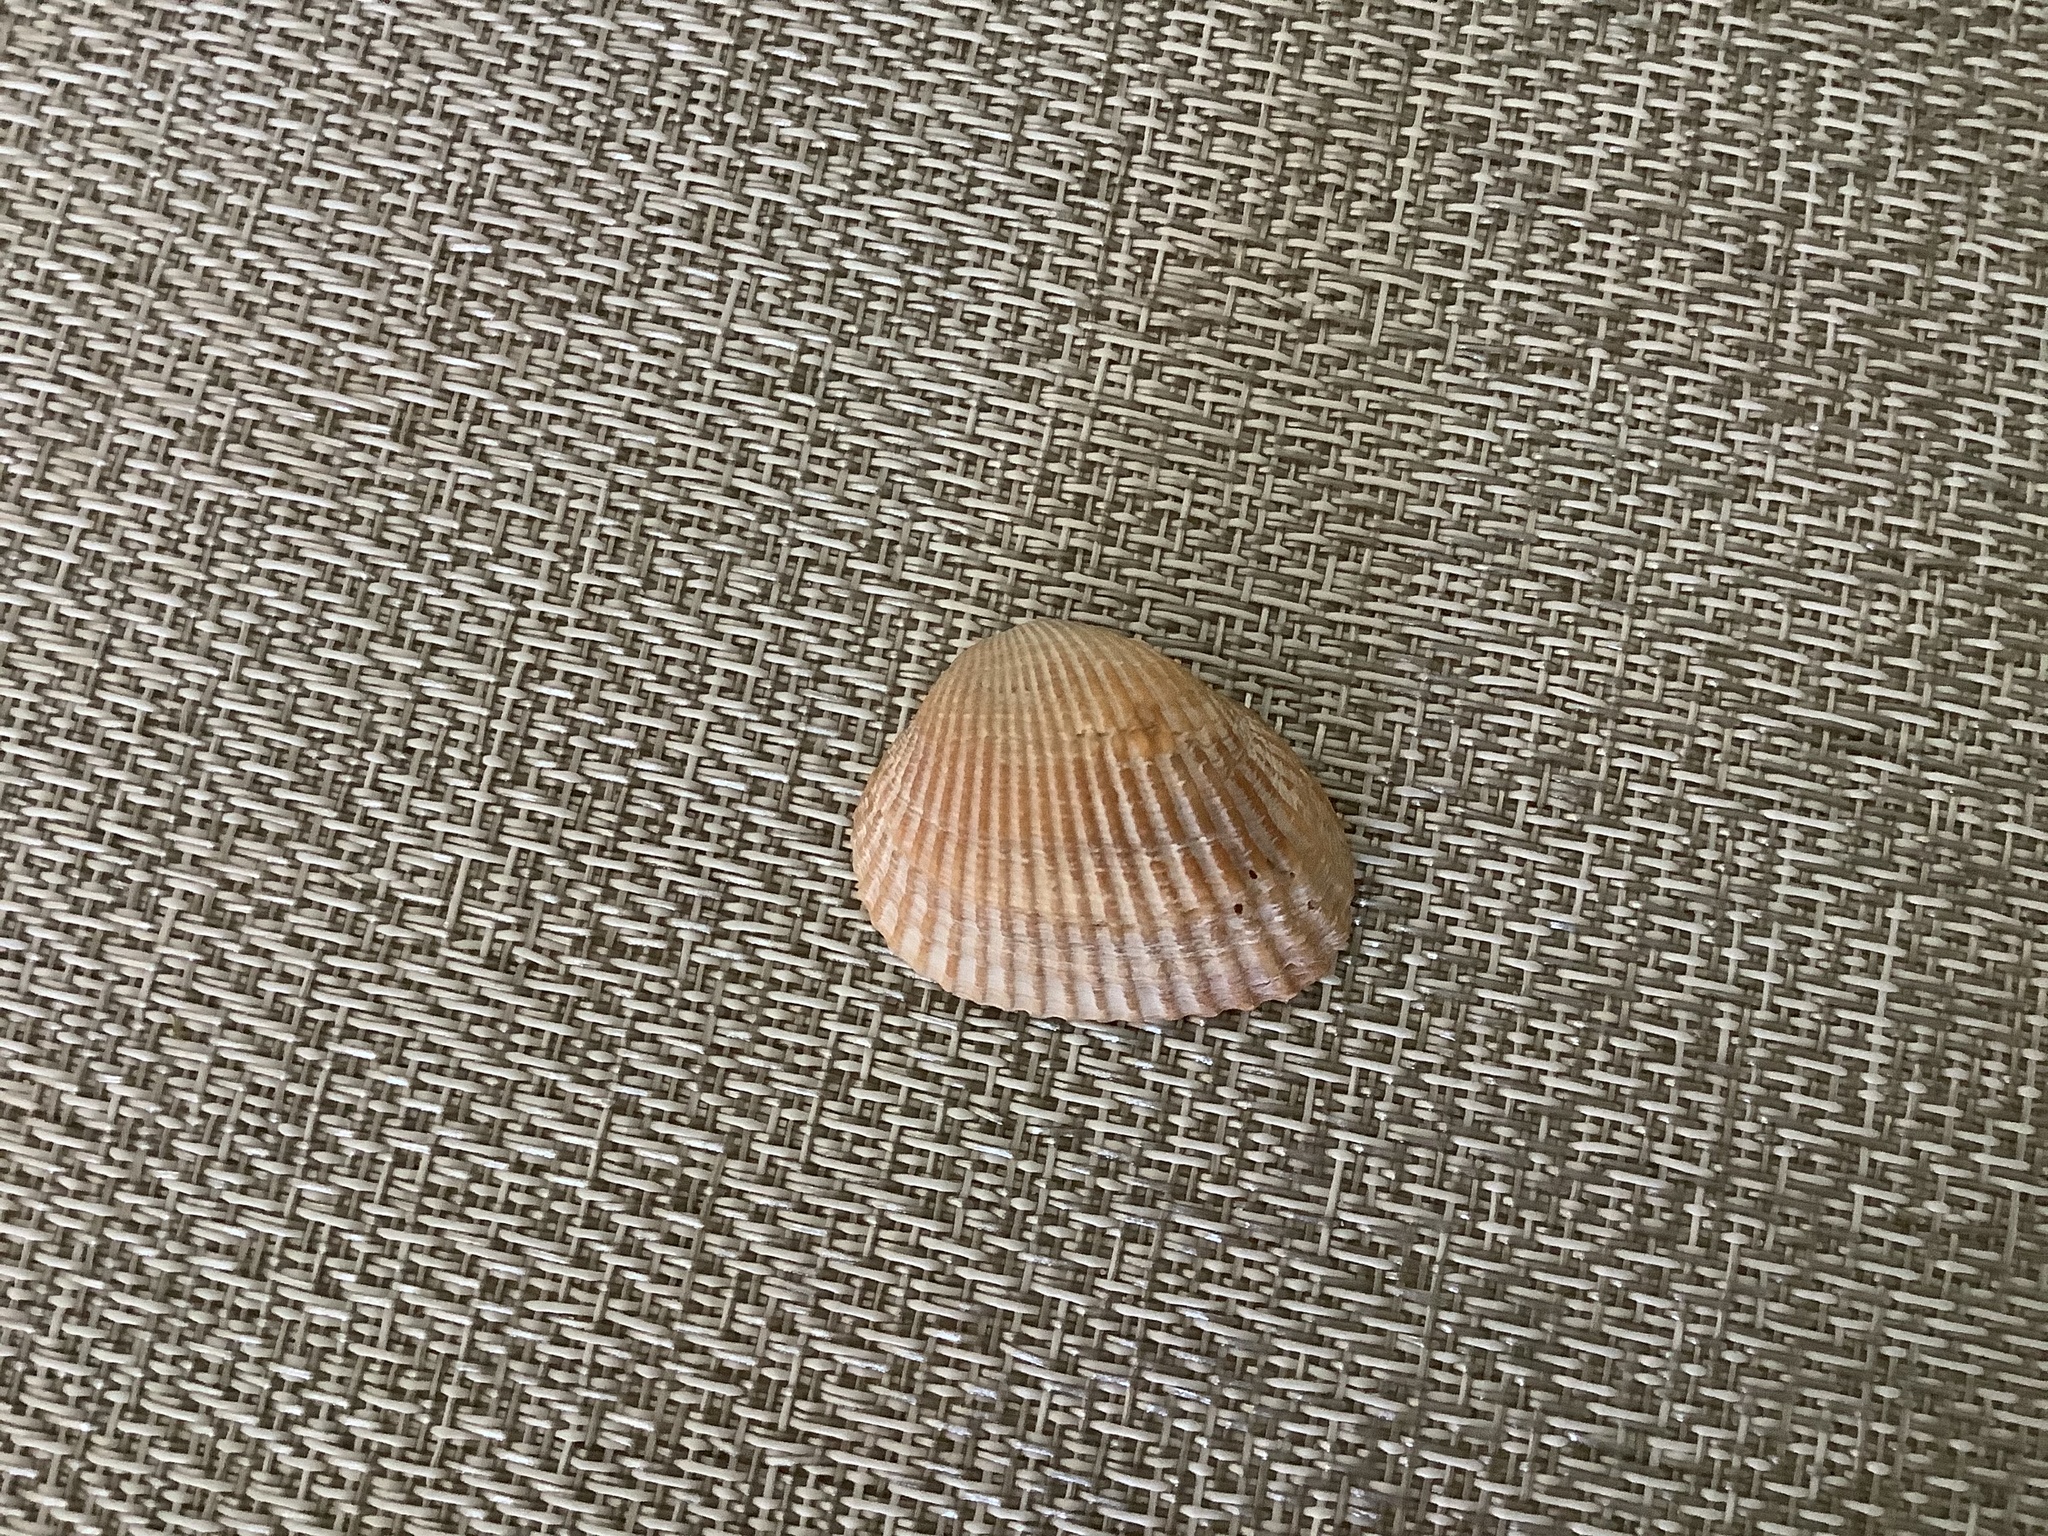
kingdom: Animalia
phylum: Mollusca
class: Bivalvia
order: Arcida
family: Arcidae
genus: Anadara
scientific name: Anadara transversa
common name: Transverse ark
